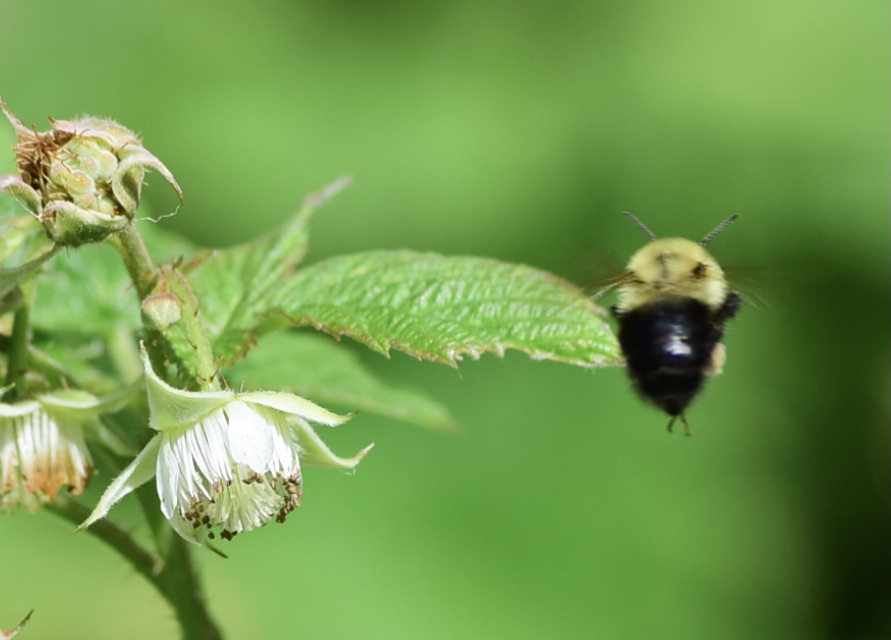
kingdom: Animalia
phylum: Arthropoda
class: Insecta
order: Hymenoptera
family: Apidae
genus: Bombus
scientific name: Bombus bimaculatus
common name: Two-spotted bumble bee
